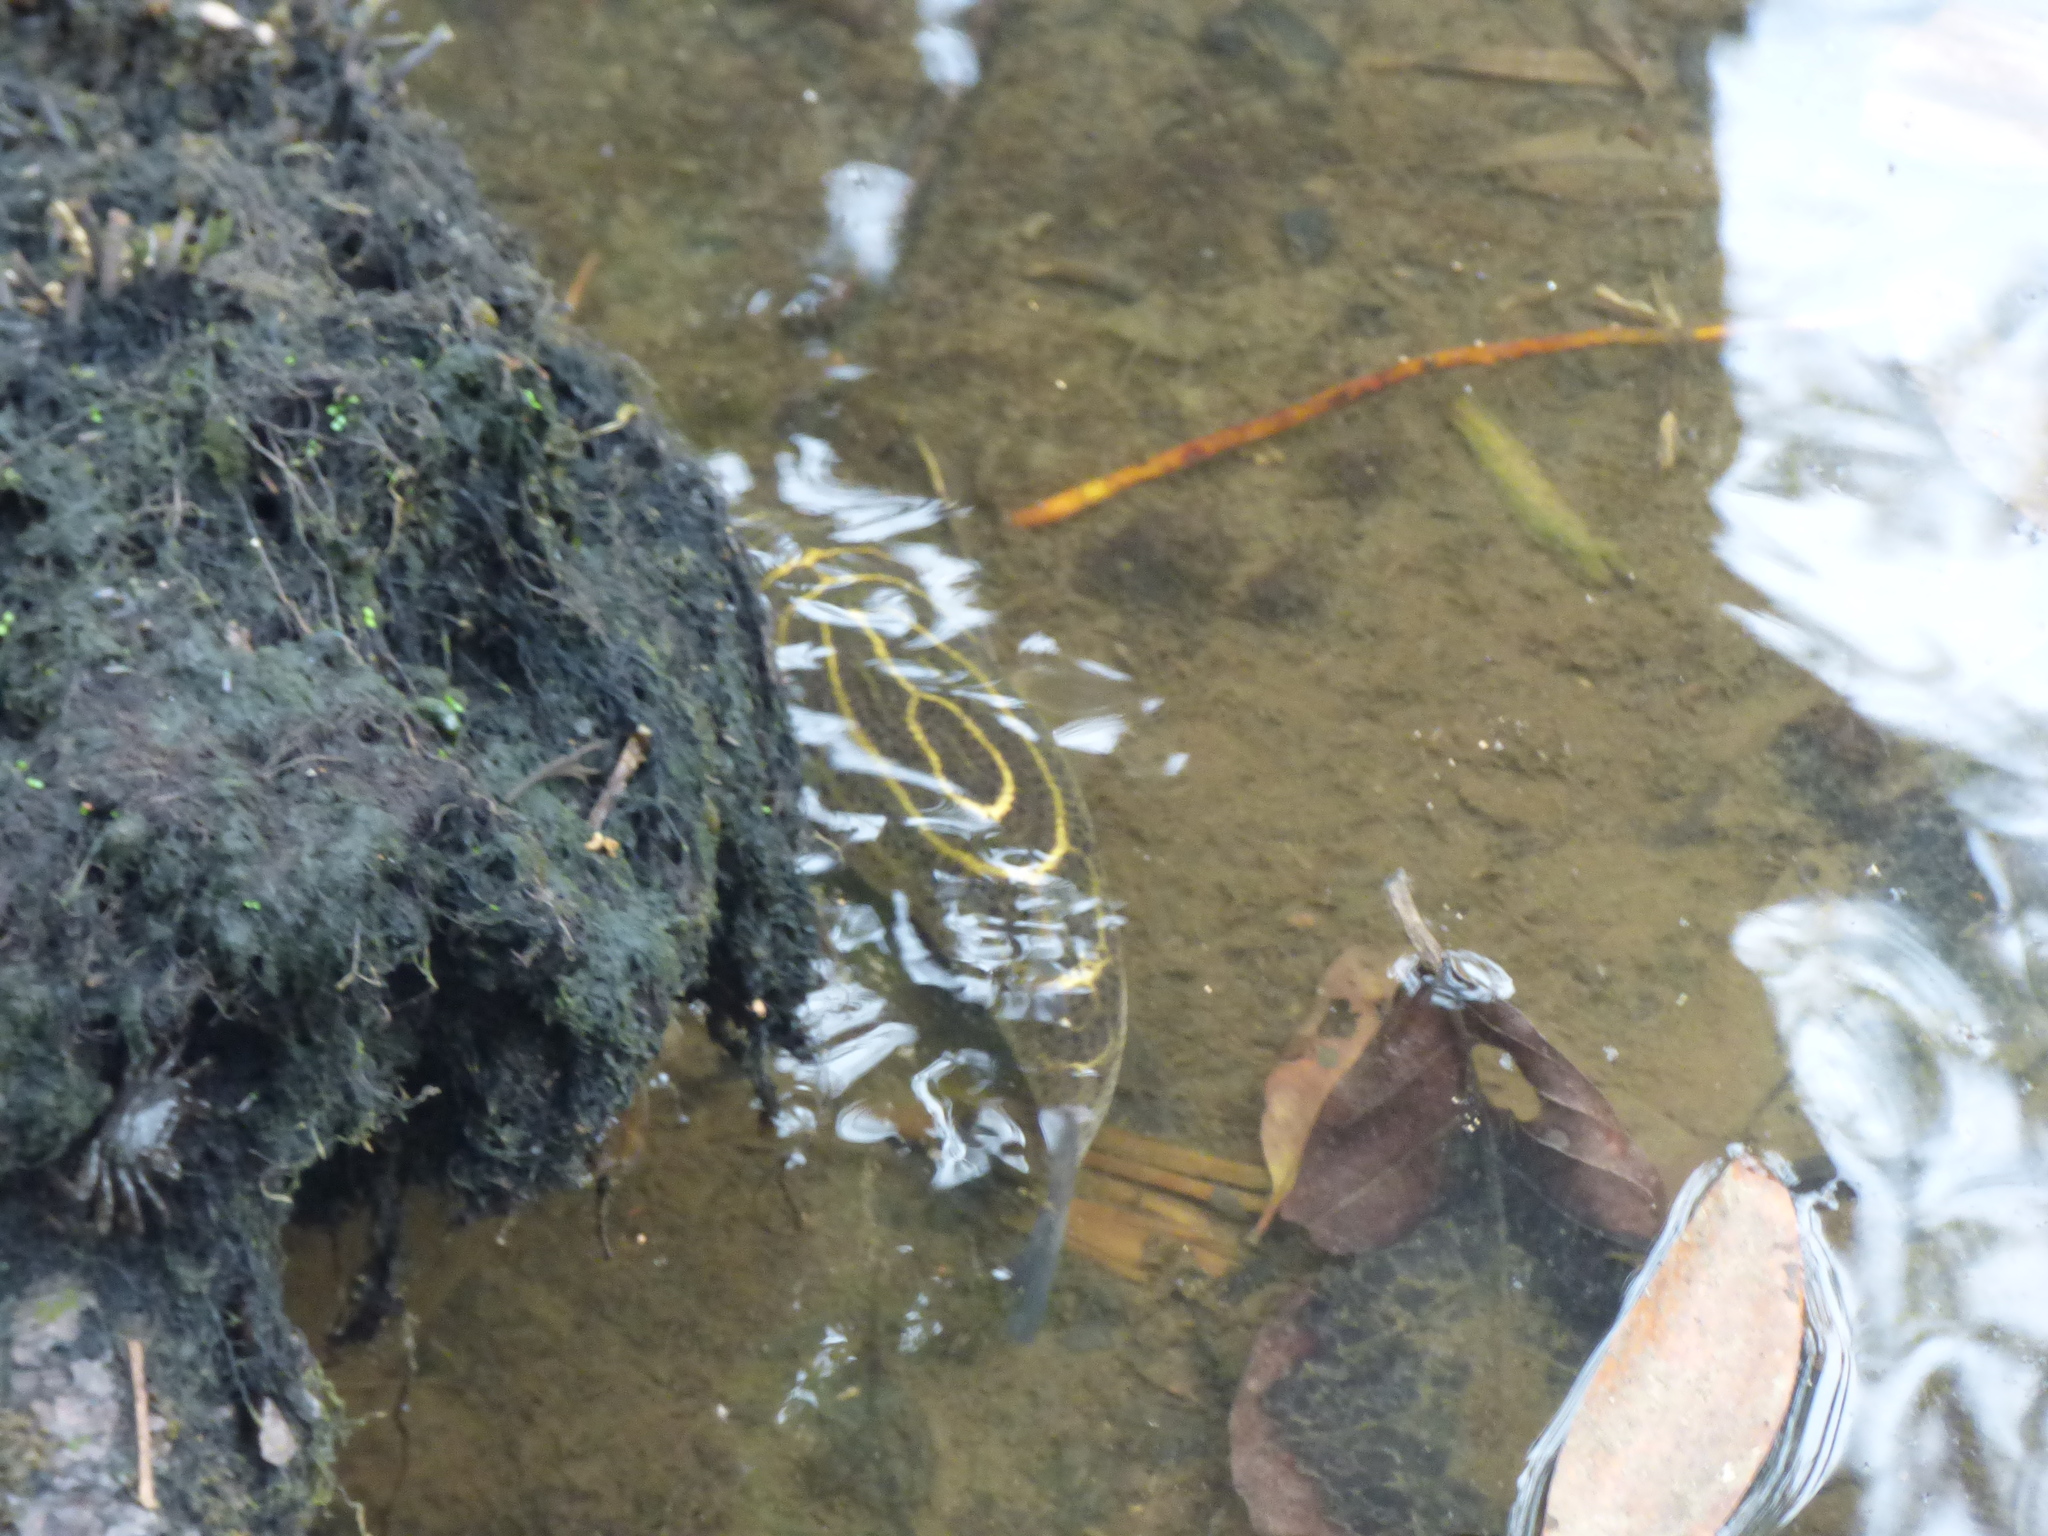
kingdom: Animalia
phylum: Chordata
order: Tetraodontiformes
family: Tetraodontidae
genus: Sphoeroides
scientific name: Sphoeroides annulatus
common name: Bullseye puffer
